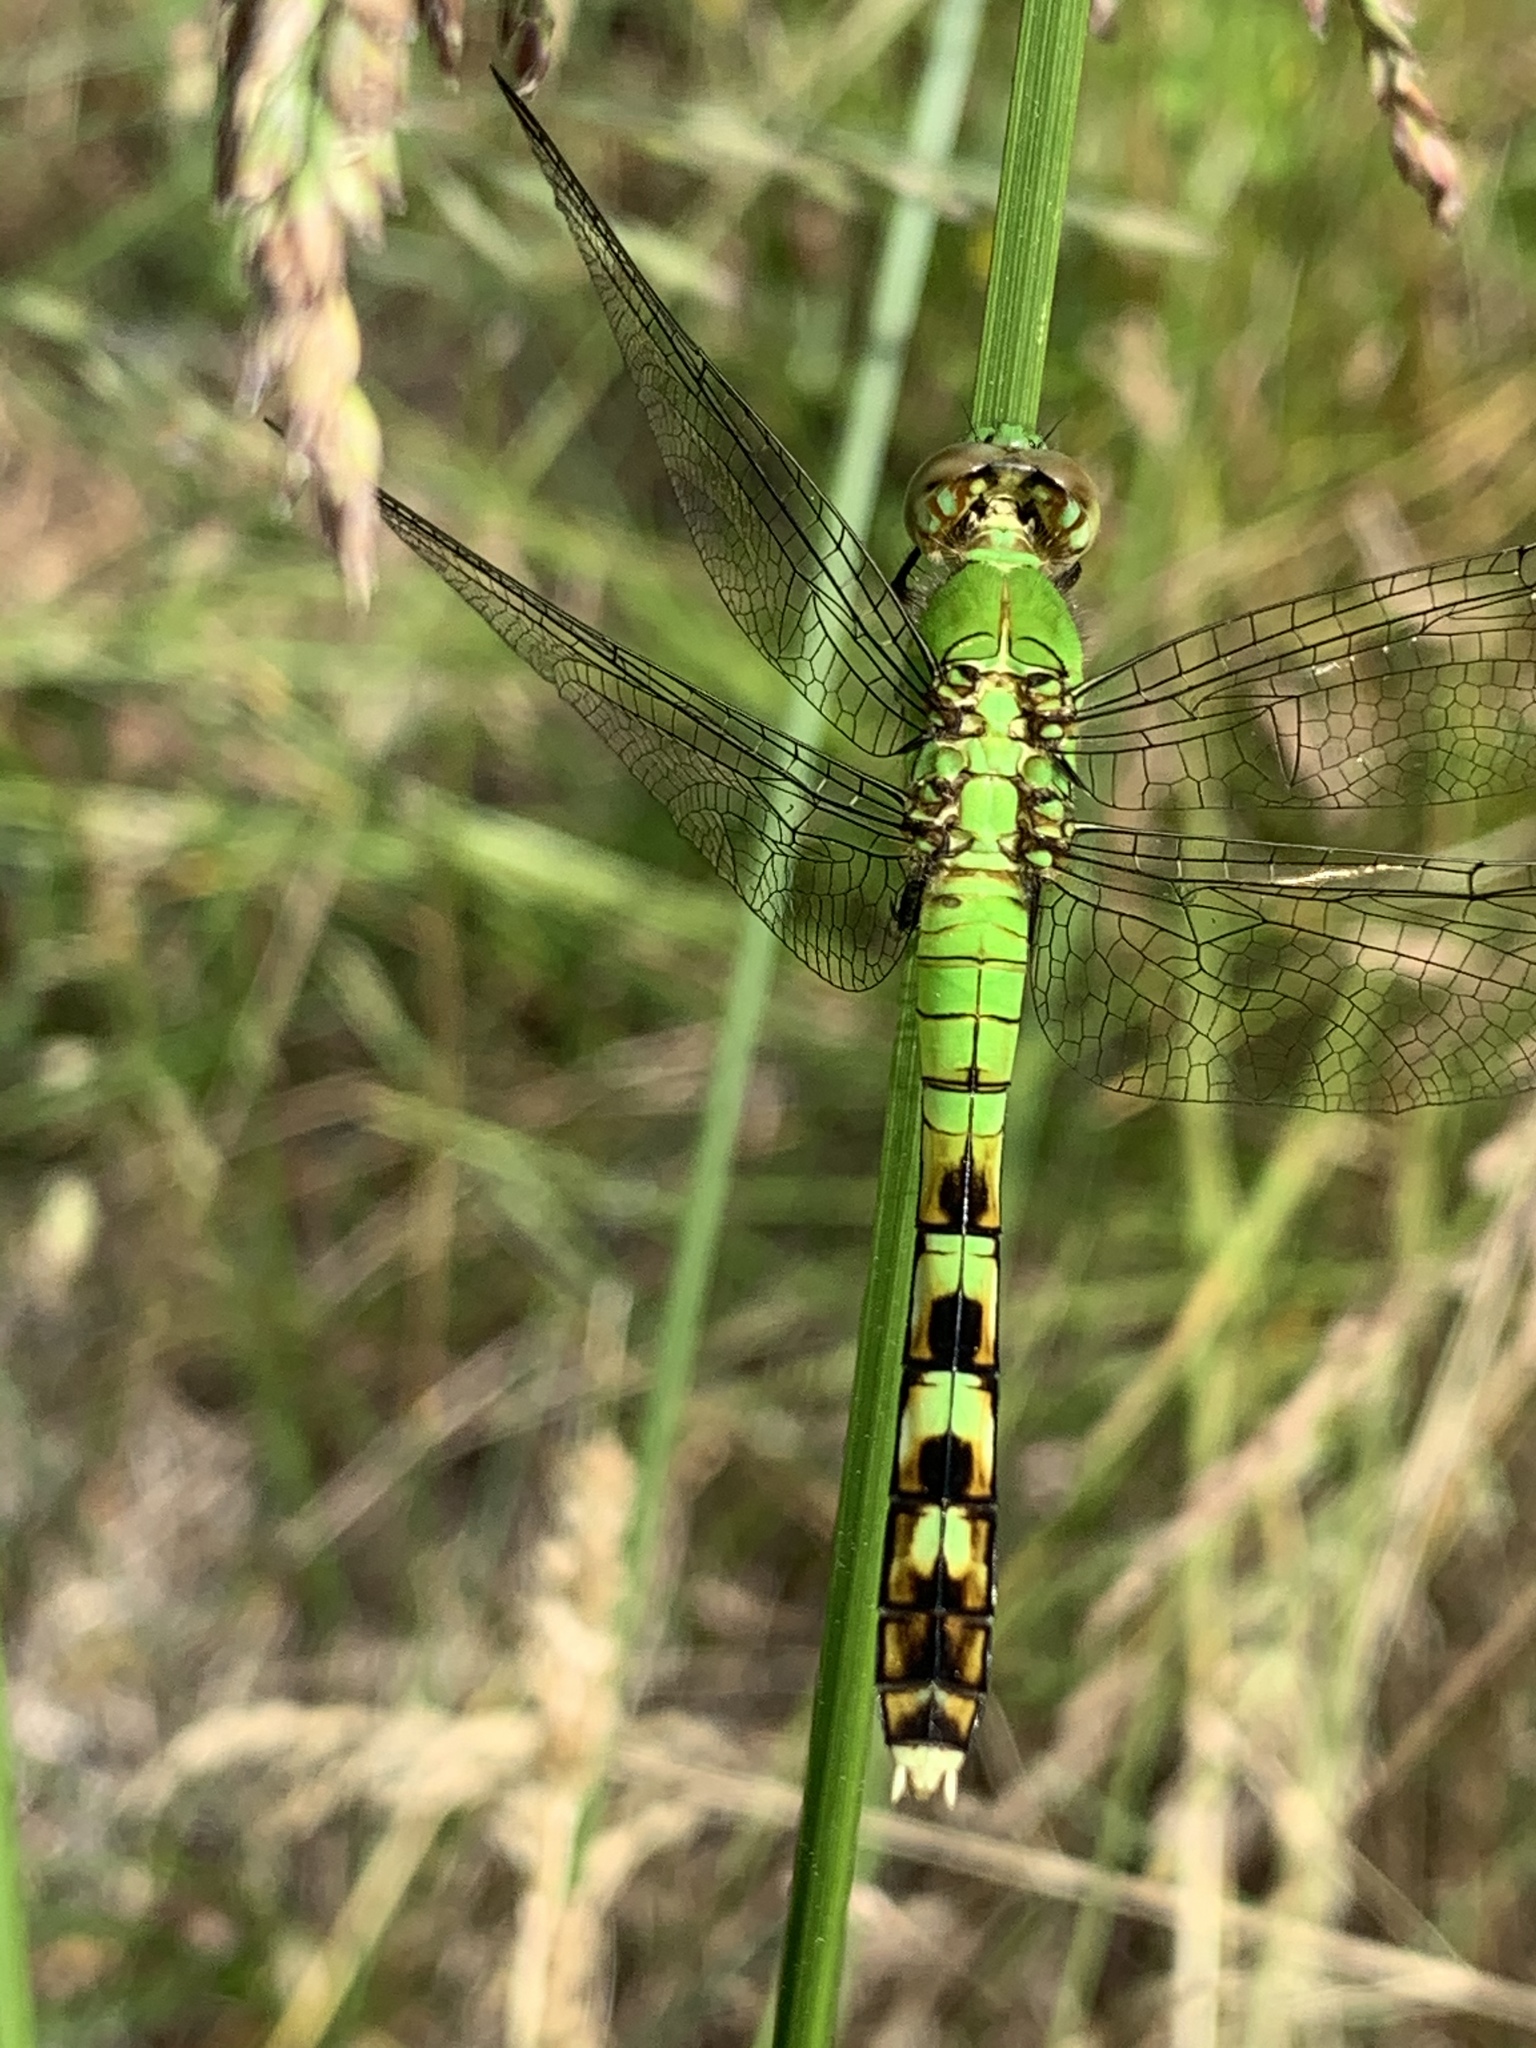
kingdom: Animalia
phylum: Arthropoda
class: Insecta
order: Odonata
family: Libellulidae
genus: Erythemis
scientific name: Erythemis simplicicollis
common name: Eastern pondhawk
